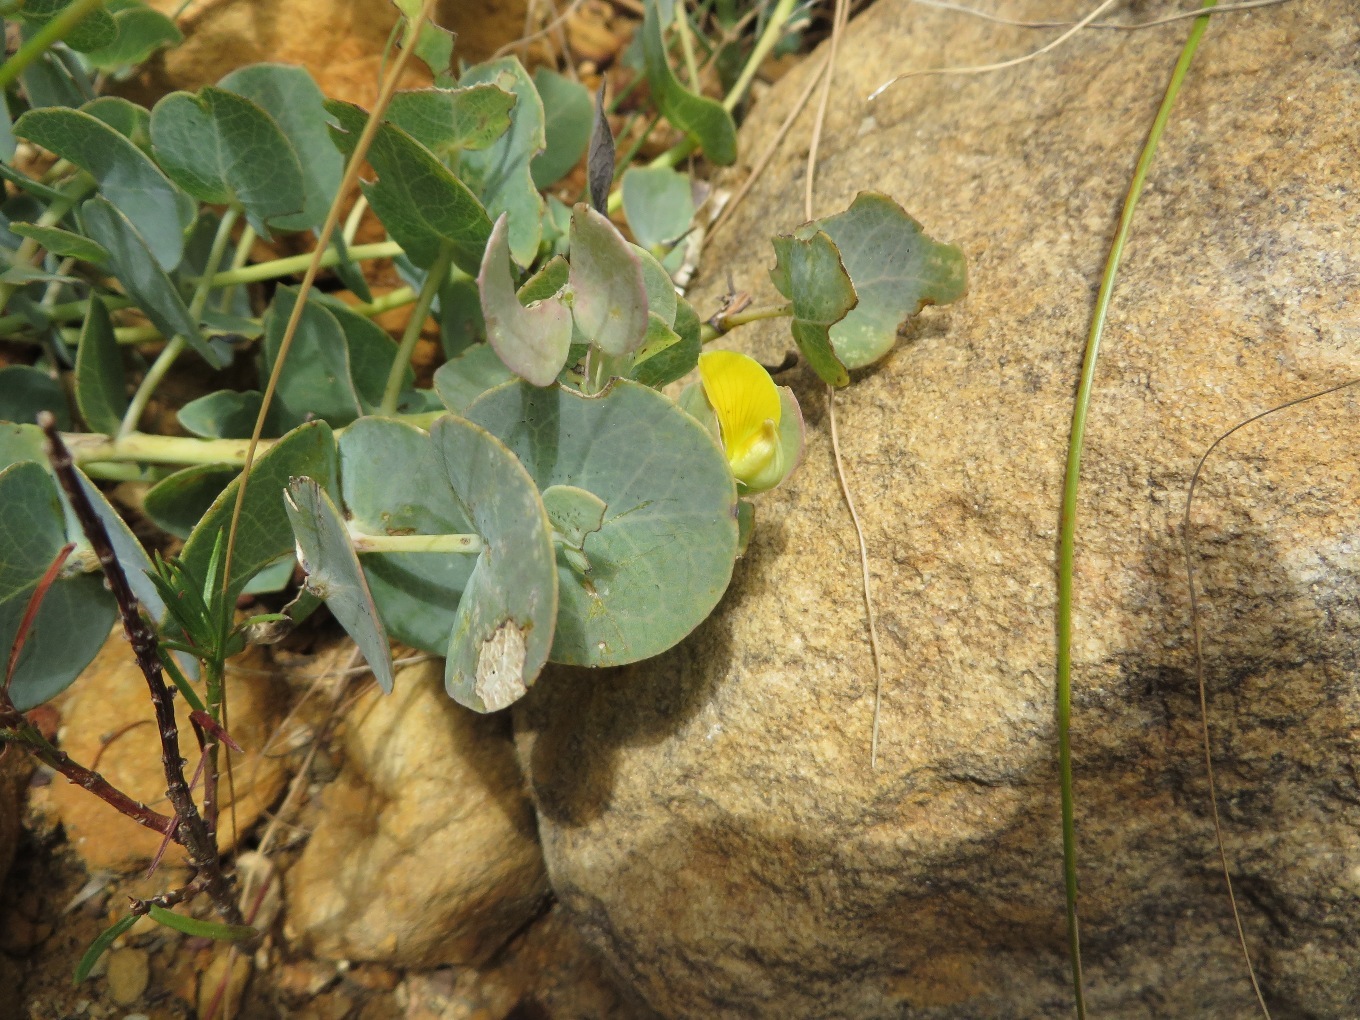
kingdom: Plantae
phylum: Tracheophyta
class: Magnoliopsida
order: Fabales
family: Fabaceae
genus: Rafnia
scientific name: Rafnia acuminata
